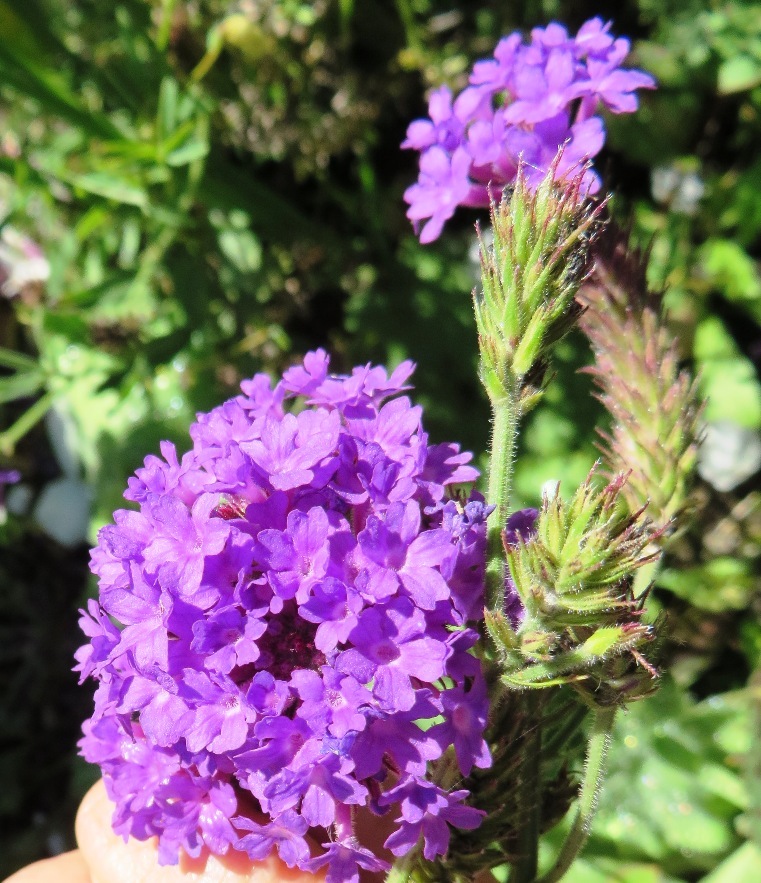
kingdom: Plantae
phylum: Tracheophyta
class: Magnoliopsida
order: Lamiales
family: Verbenaceae
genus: Verbena
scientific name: Verbena rigida
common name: Slender vervain
